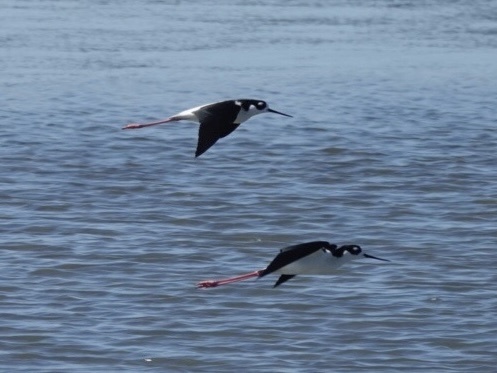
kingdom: Animalia
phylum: Chordata
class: Aves
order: Charadriiformes
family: Recurvirostridae
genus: Himantopus
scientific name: Himantopus mexicanus
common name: Black-necked stilt
